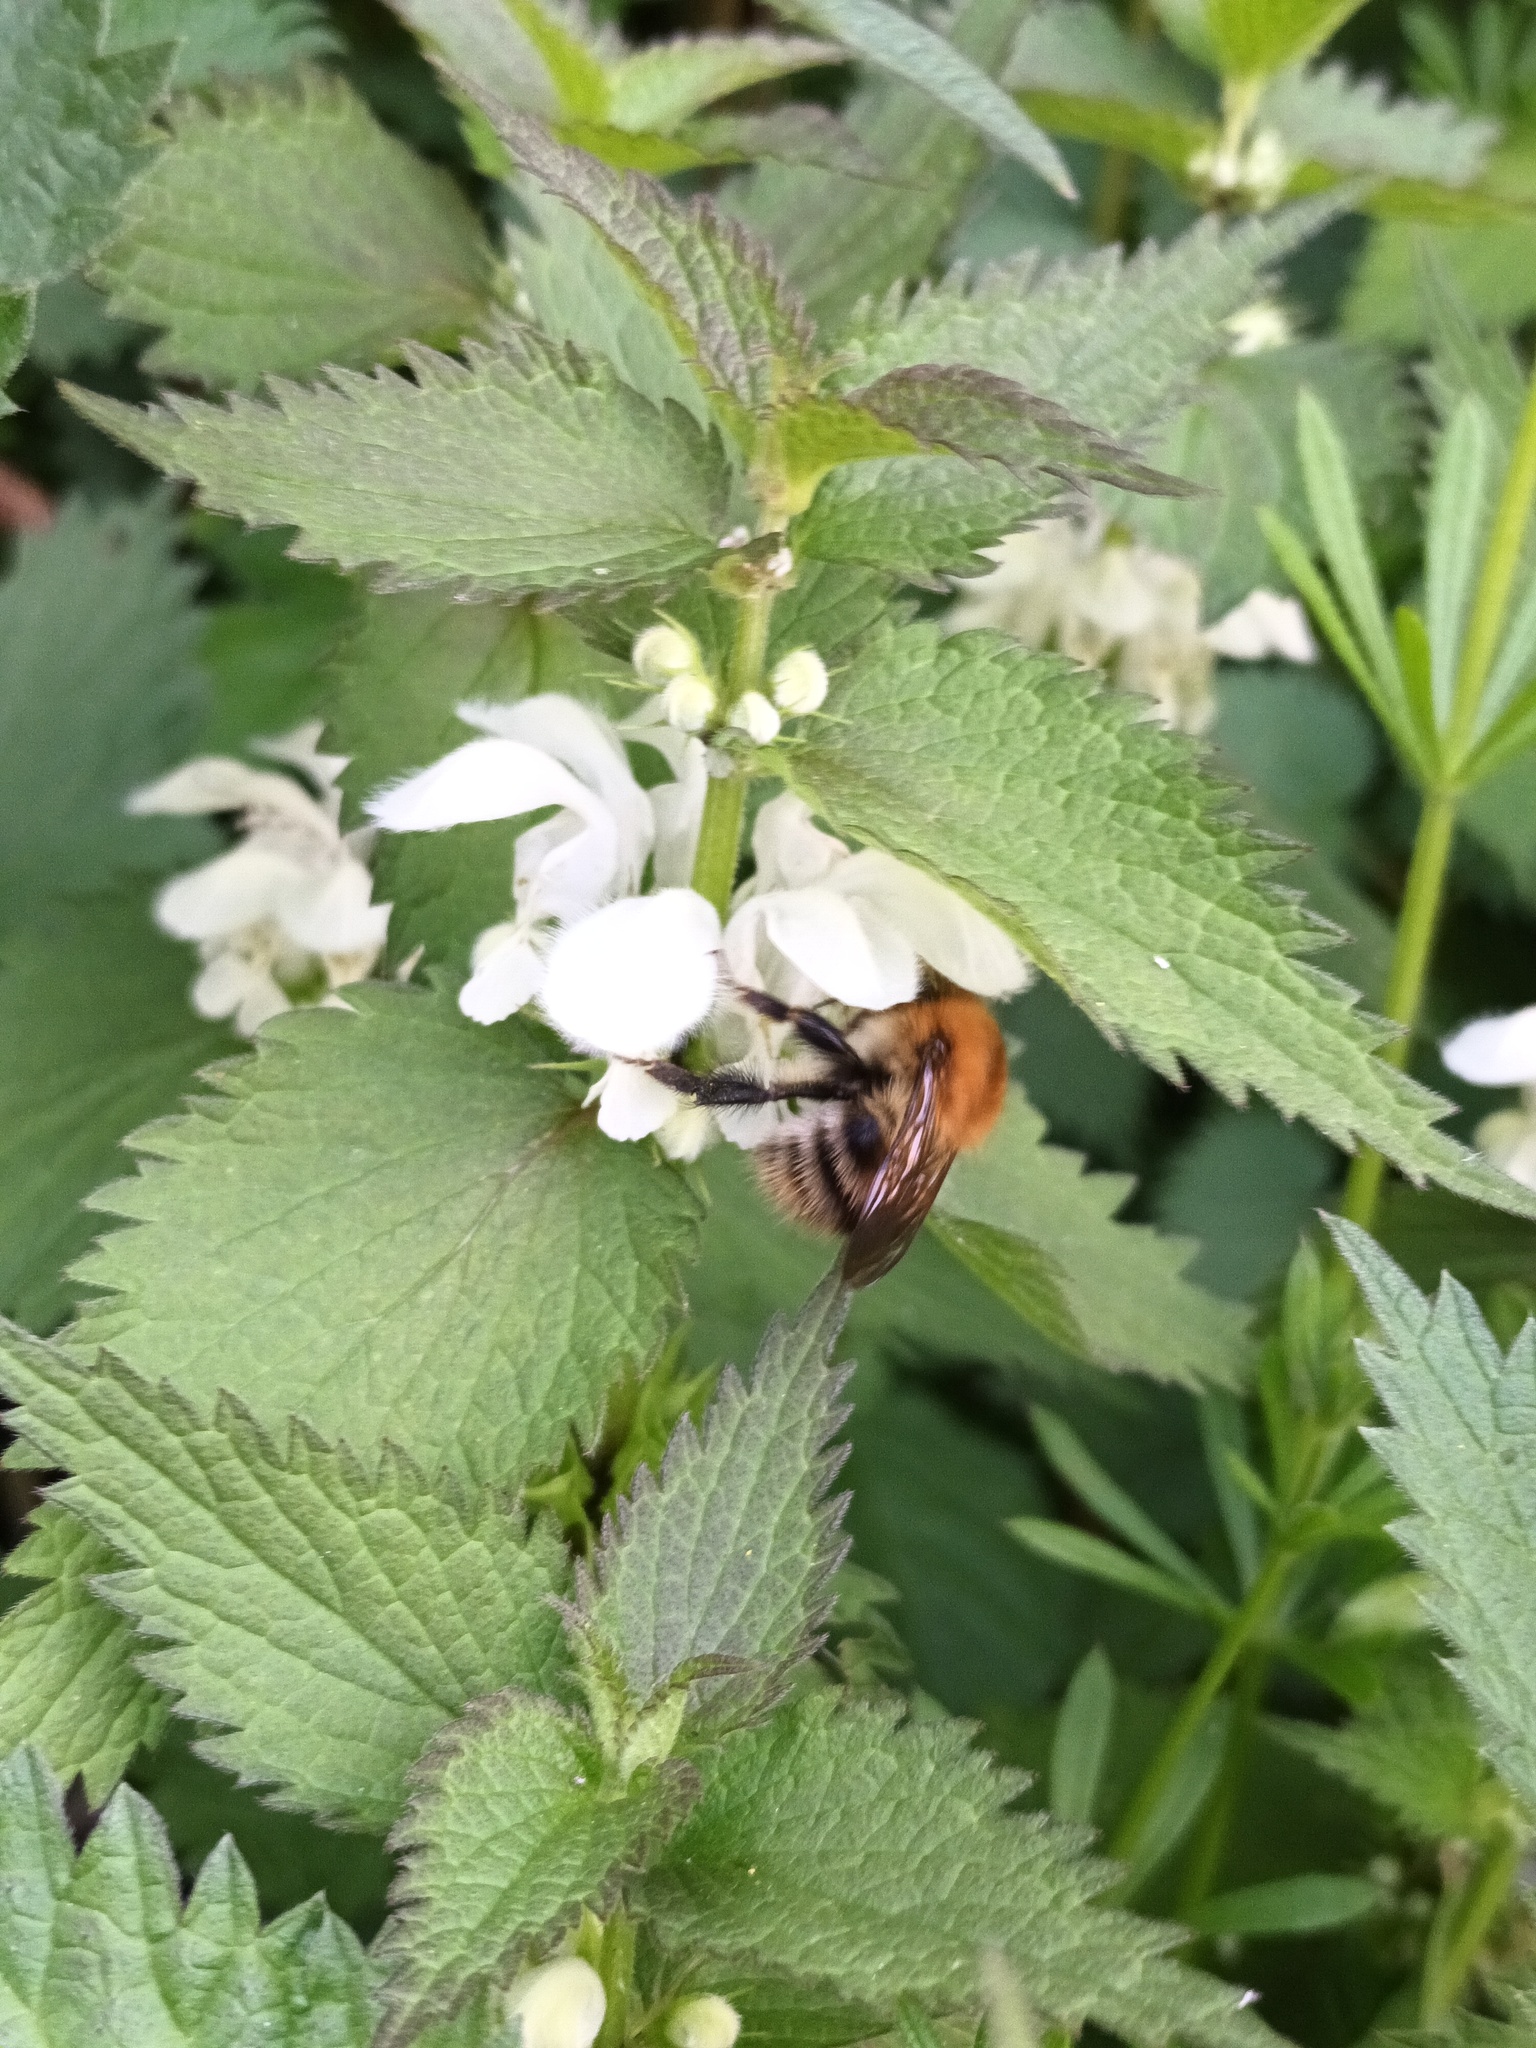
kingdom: Animalia
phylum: Arthropoda
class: Insecta
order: Hymenoptera
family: Apidae
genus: Bombus
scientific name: Bombus pascuorum
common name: Common carder bee
